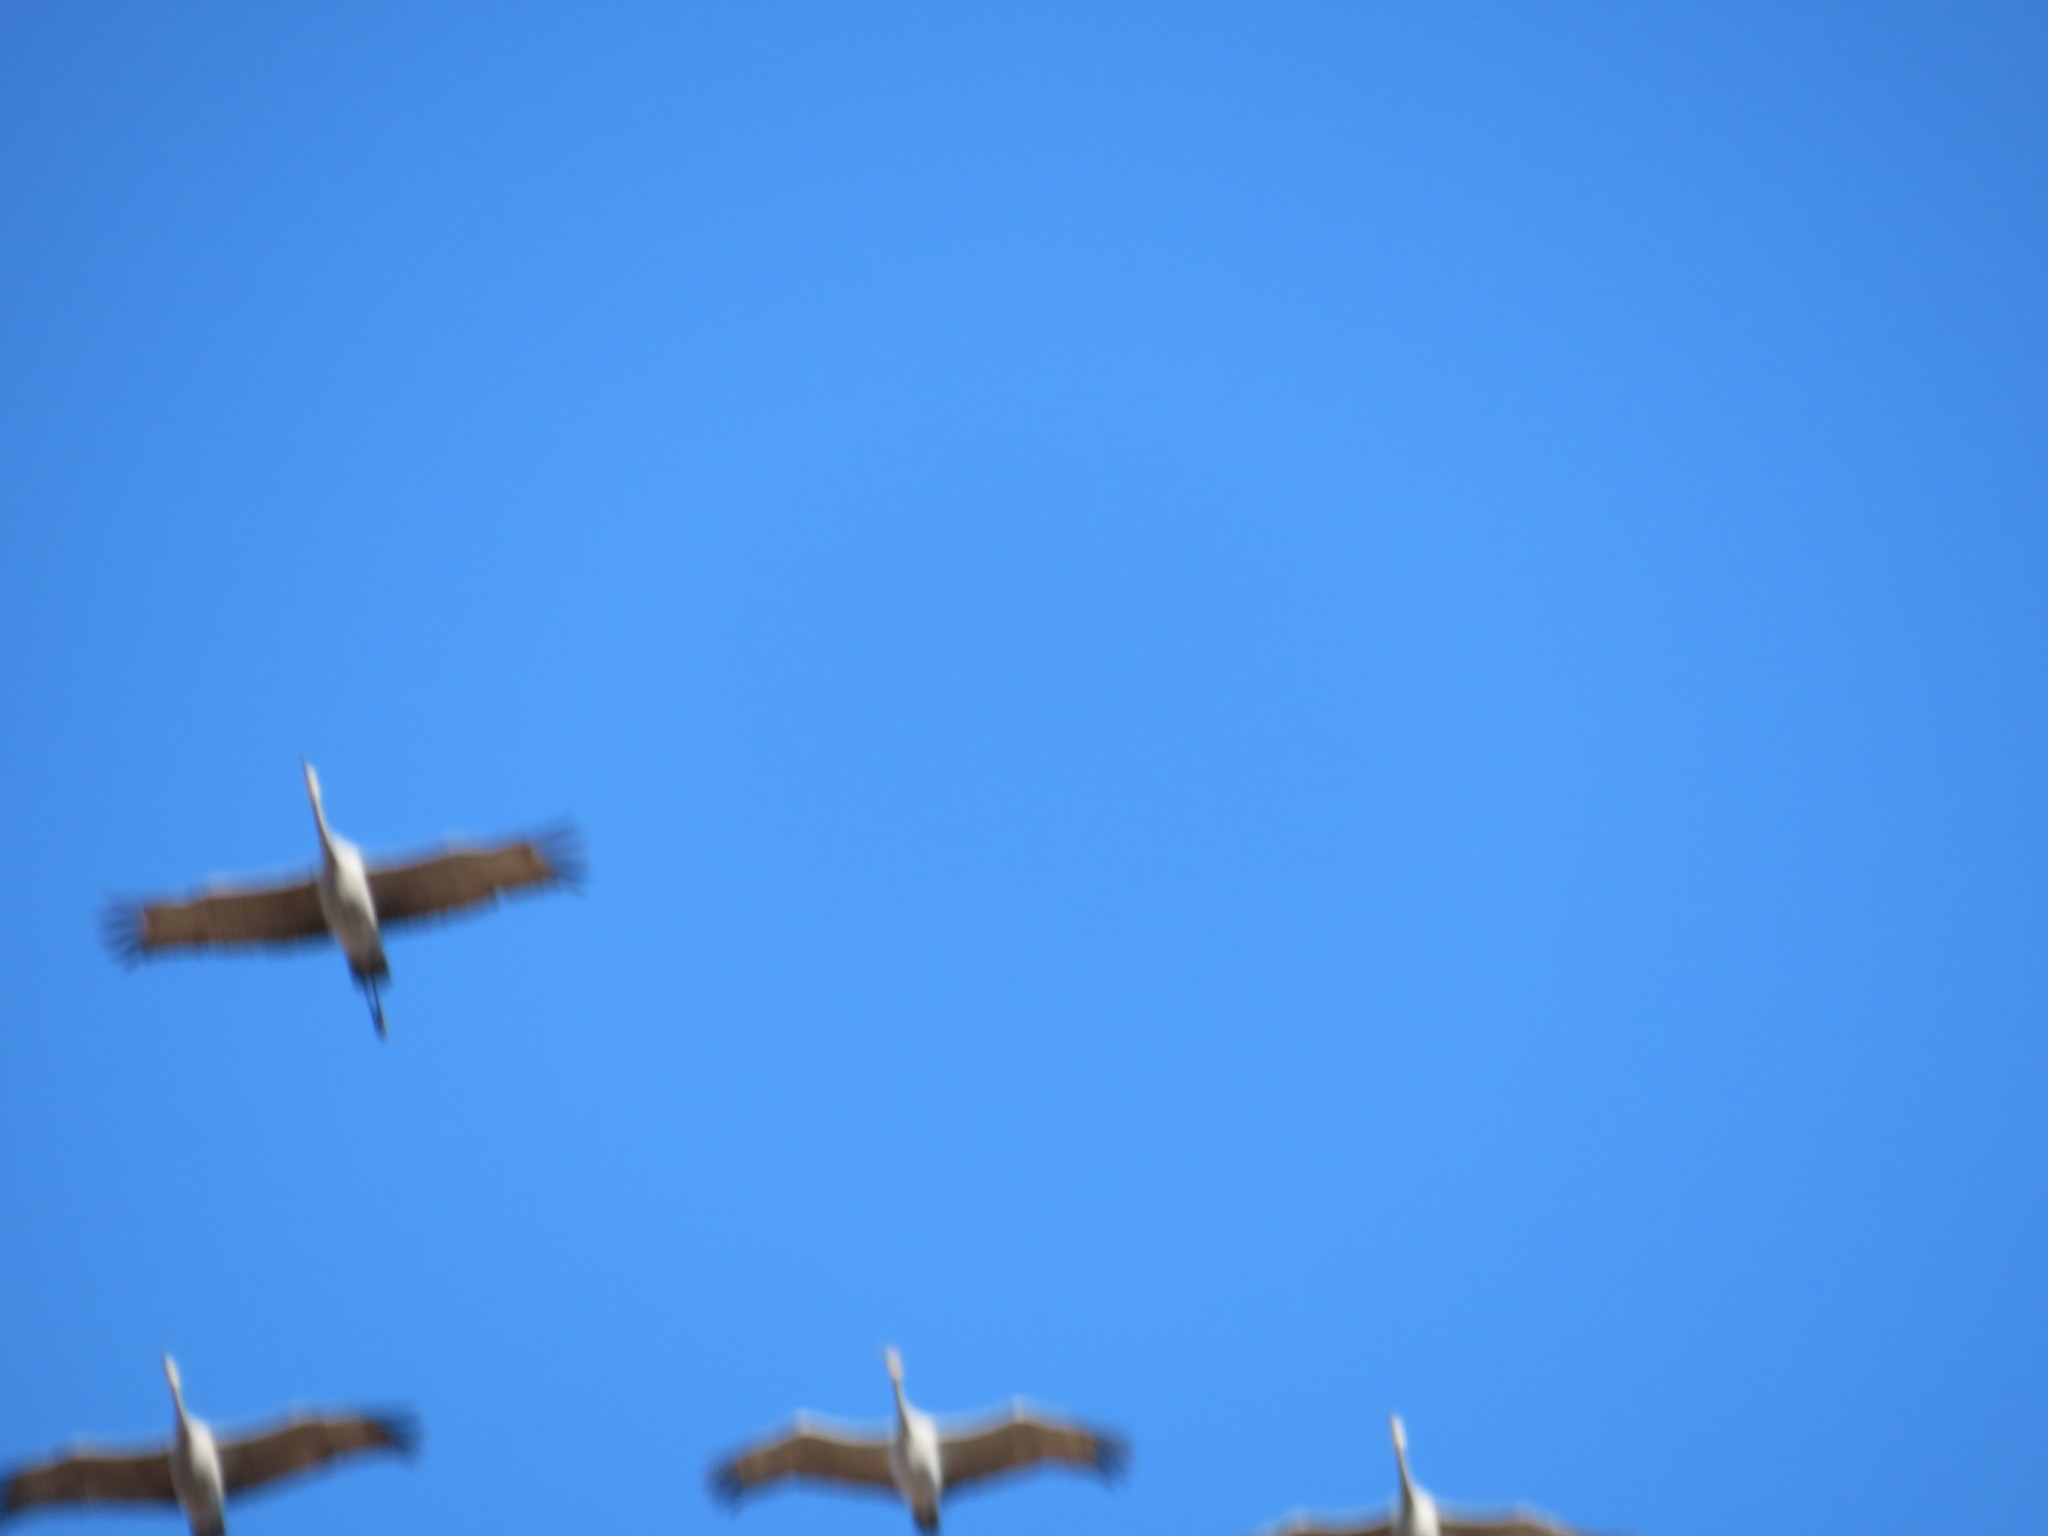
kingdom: Animalia
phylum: Chordata
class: Aves
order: Gruiformes
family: Gruidae
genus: Grus
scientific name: Grus canadensis
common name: Sandhill crane
